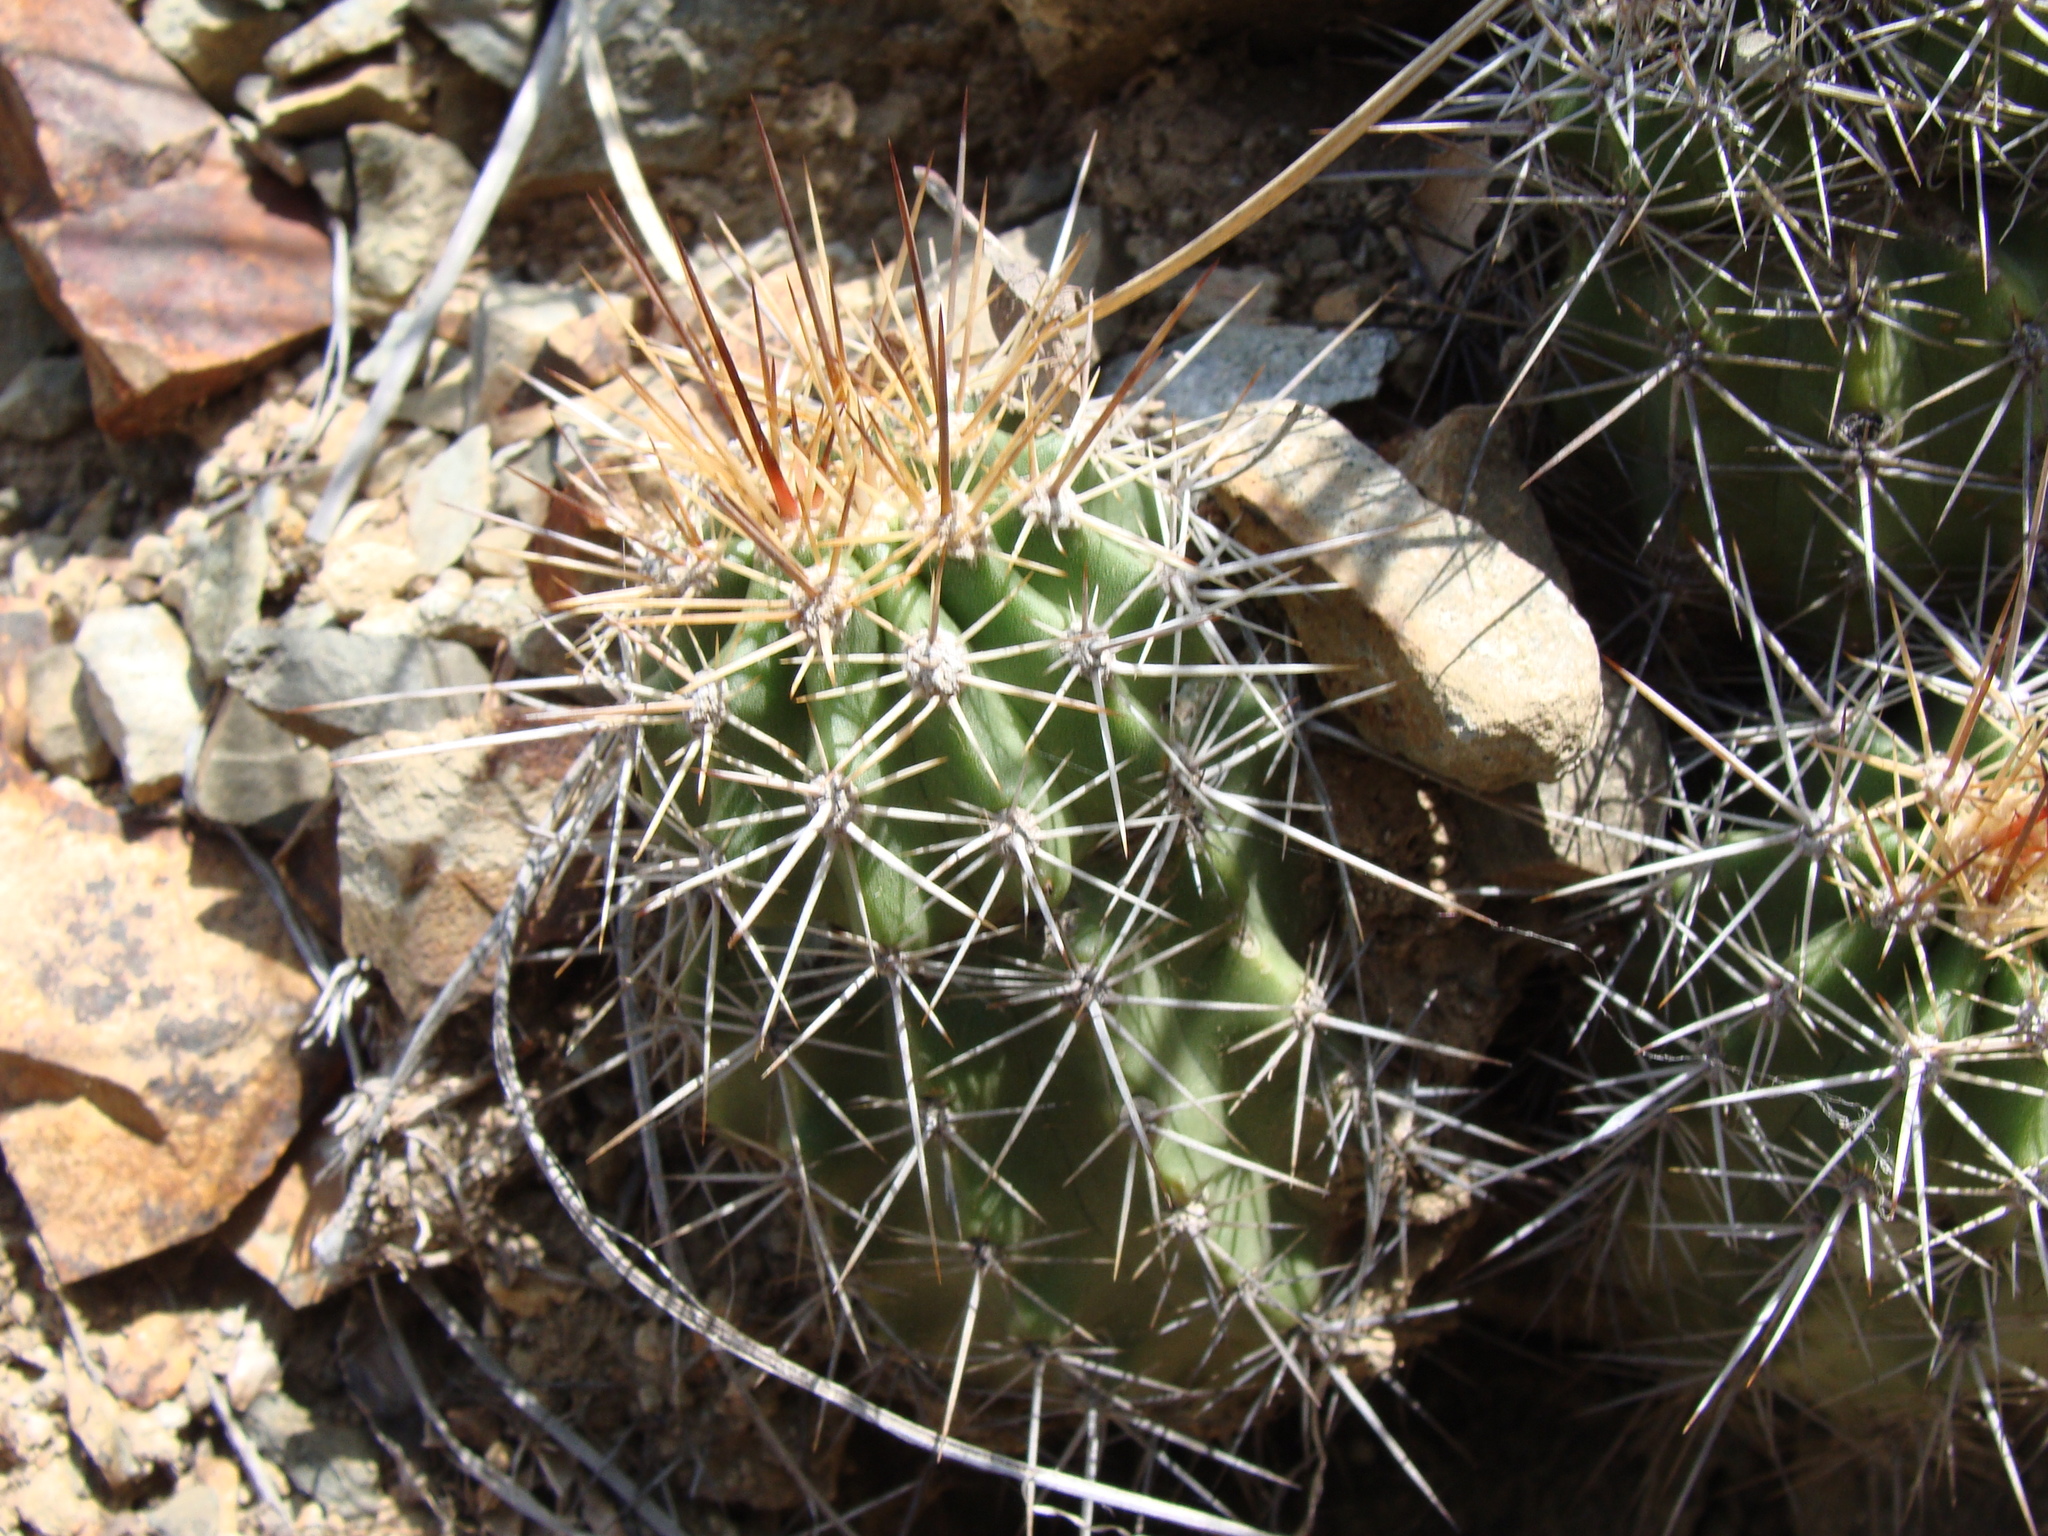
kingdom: Plantae
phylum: Tracheophyta
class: Magnoliopsida
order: Caryophyllales
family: Cactaceae
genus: Echinocereus
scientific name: Echinocereus coccineus
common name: Scarlet hedgehog cactus
